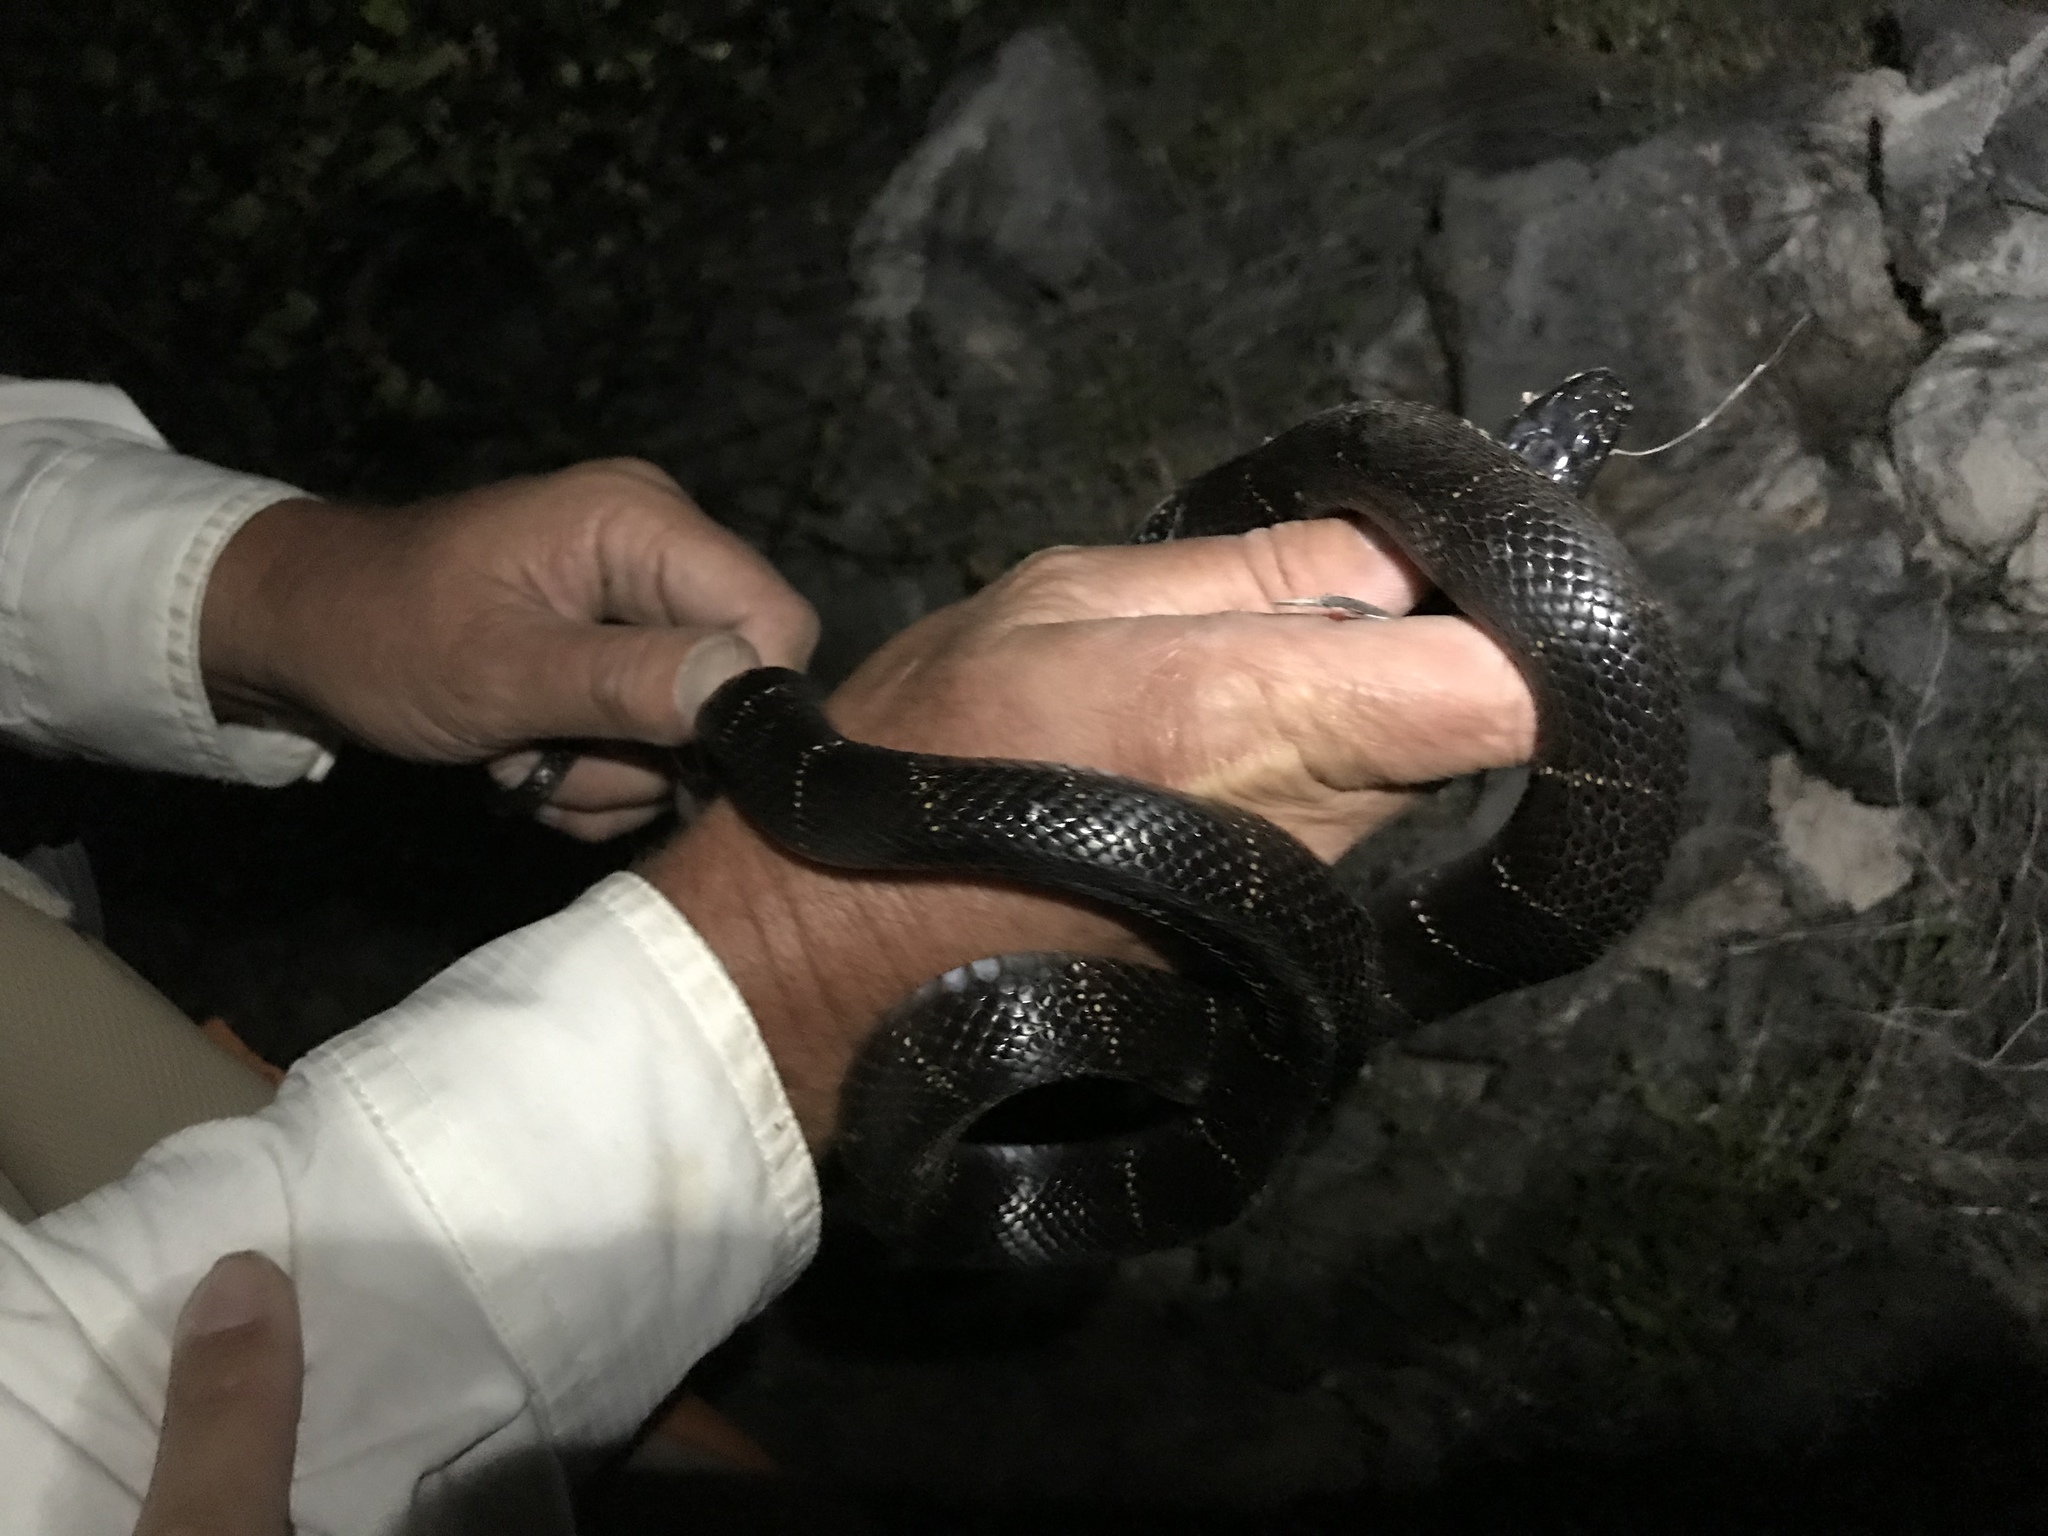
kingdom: Animalia
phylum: Chordata
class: Squamata
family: Colubridae
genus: Lampropeltis
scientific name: Lampropeltis californiae
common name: California kingsnake
